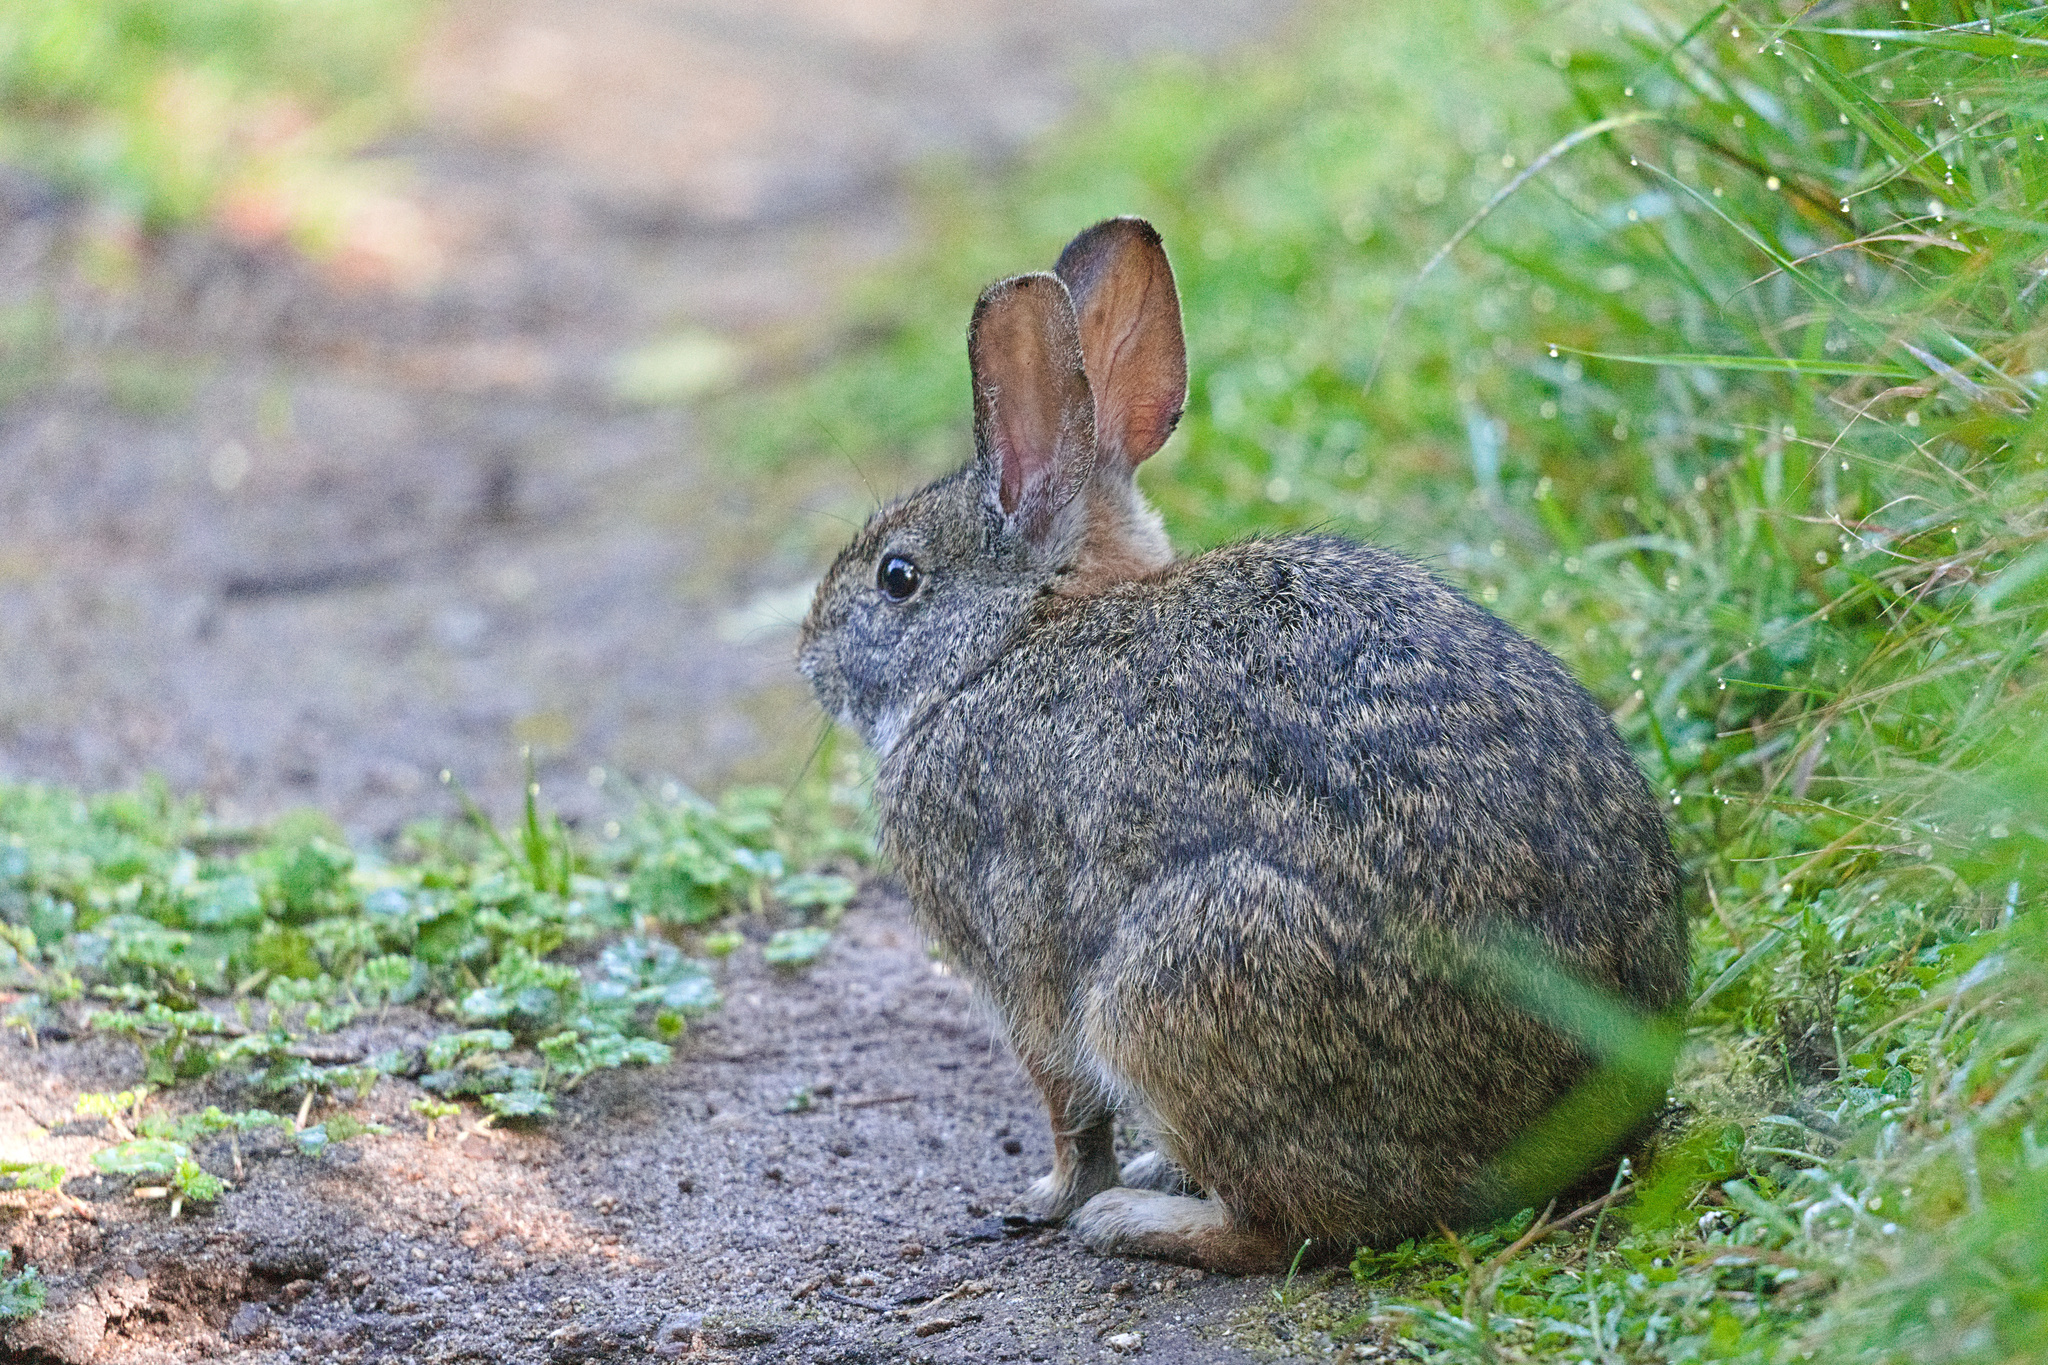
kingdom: Animalia
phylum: Chordata
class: Mammalia
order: Lagomorpha
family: Leporidae
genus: Sylvilagus
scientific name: Sylvilagus andinus
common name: Andean cottontail
